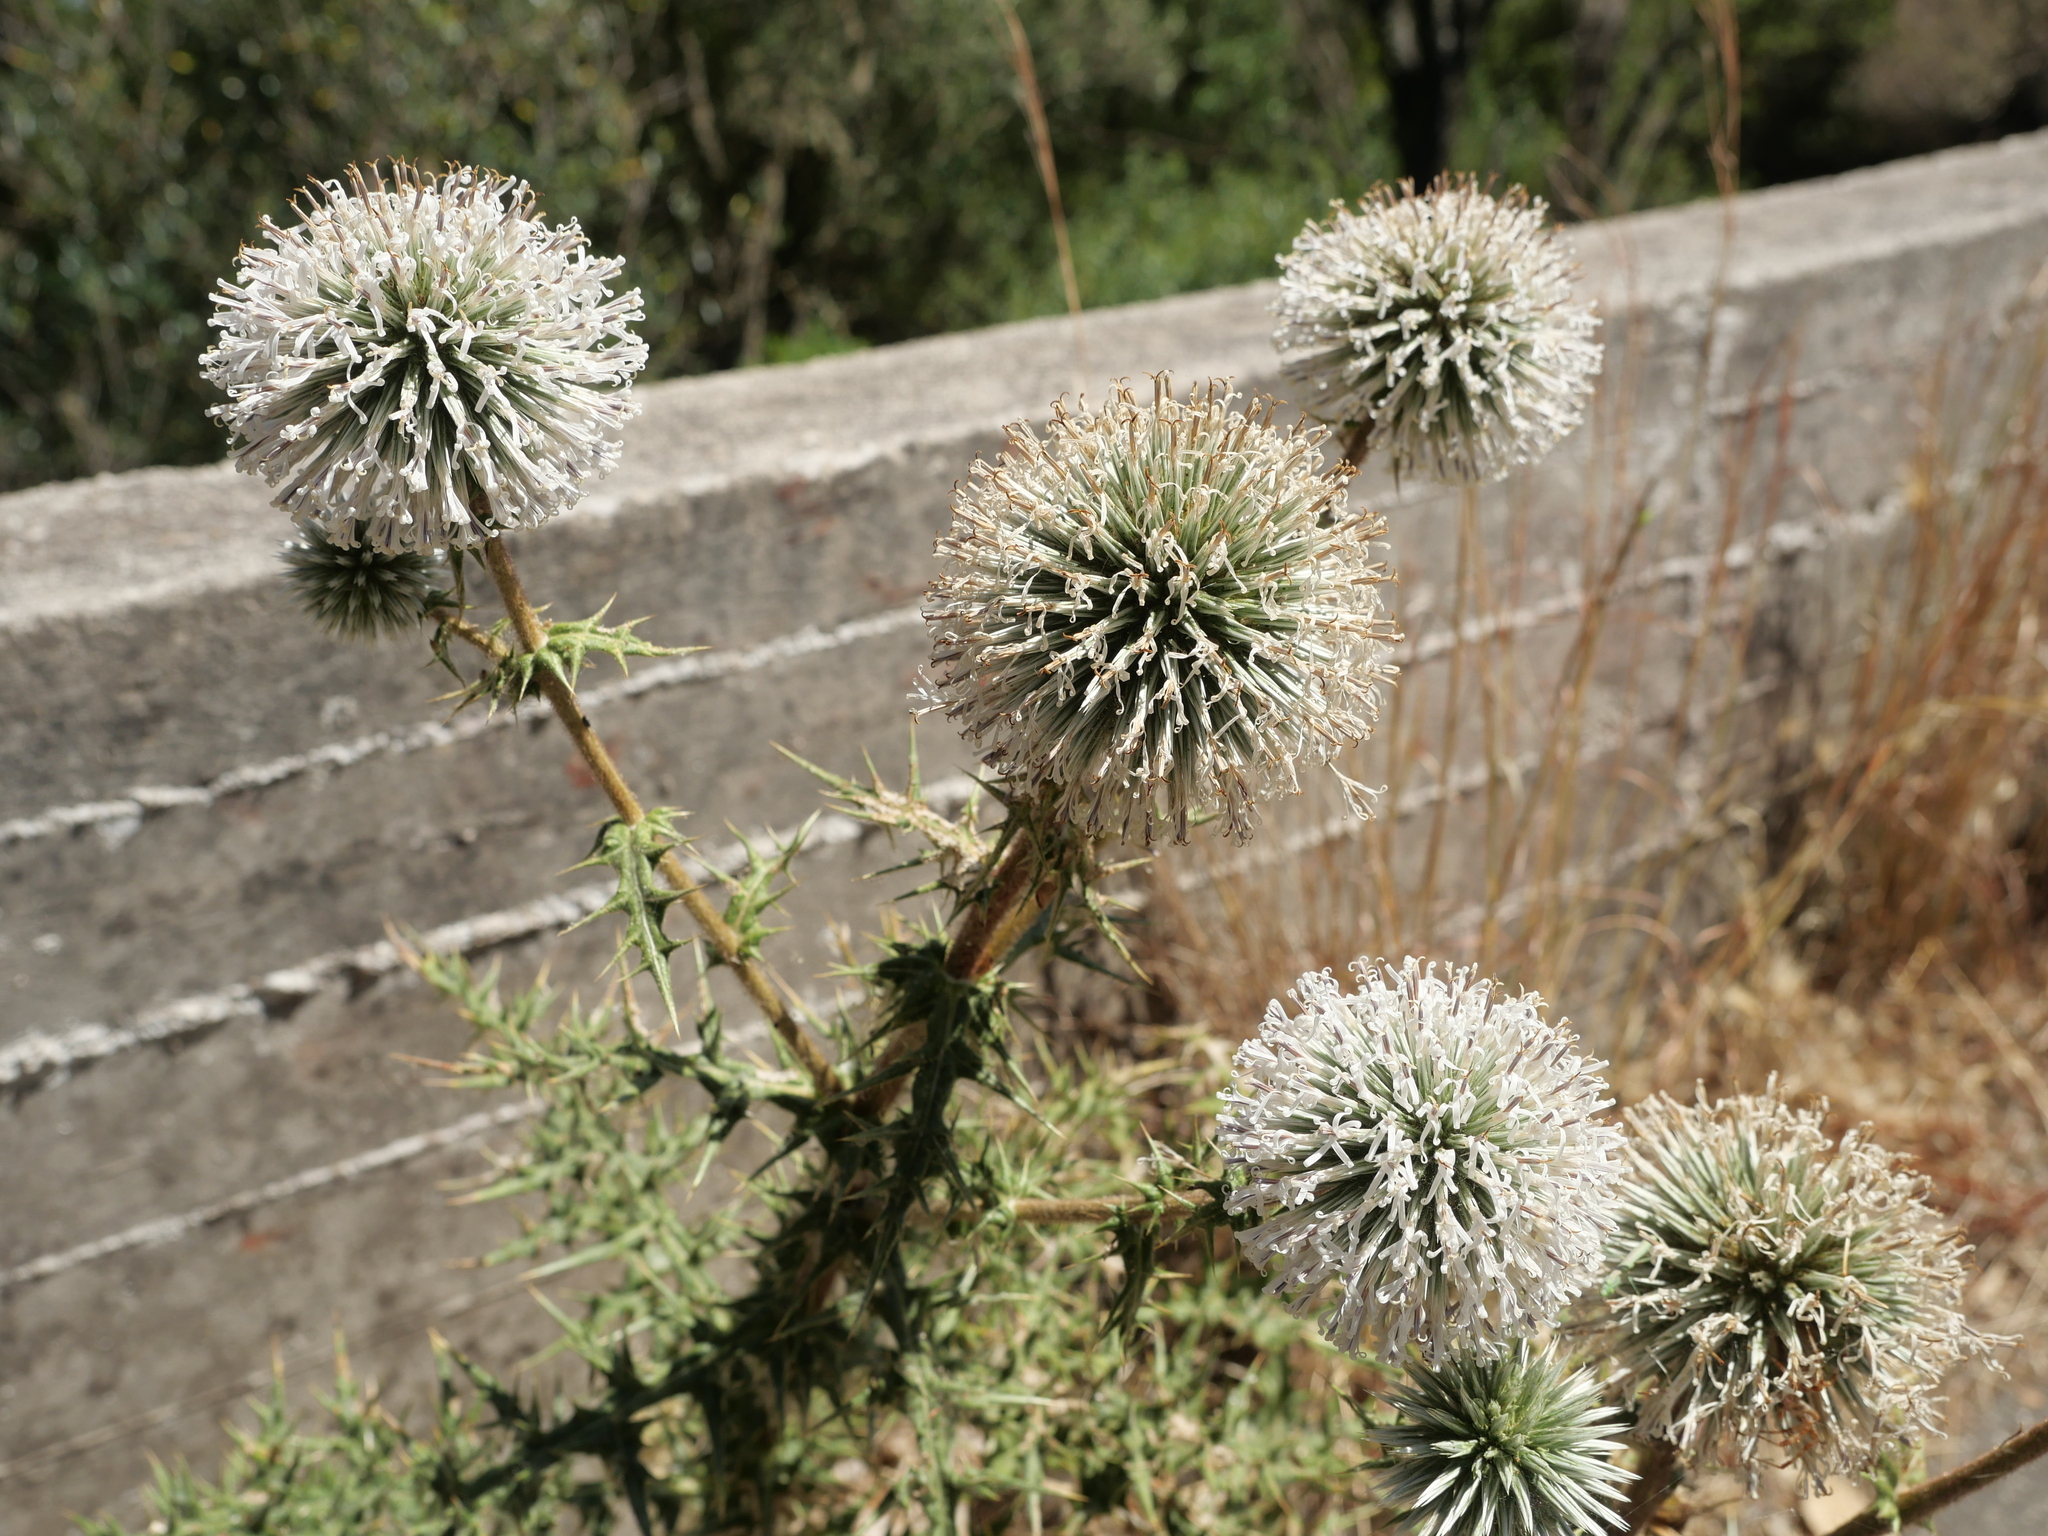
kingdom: Plantae
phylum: Tracheophyta
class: Magnoliopsida
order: Asterales
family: Asteraceae
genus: Echinops
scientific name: Echinops spinosissimus
